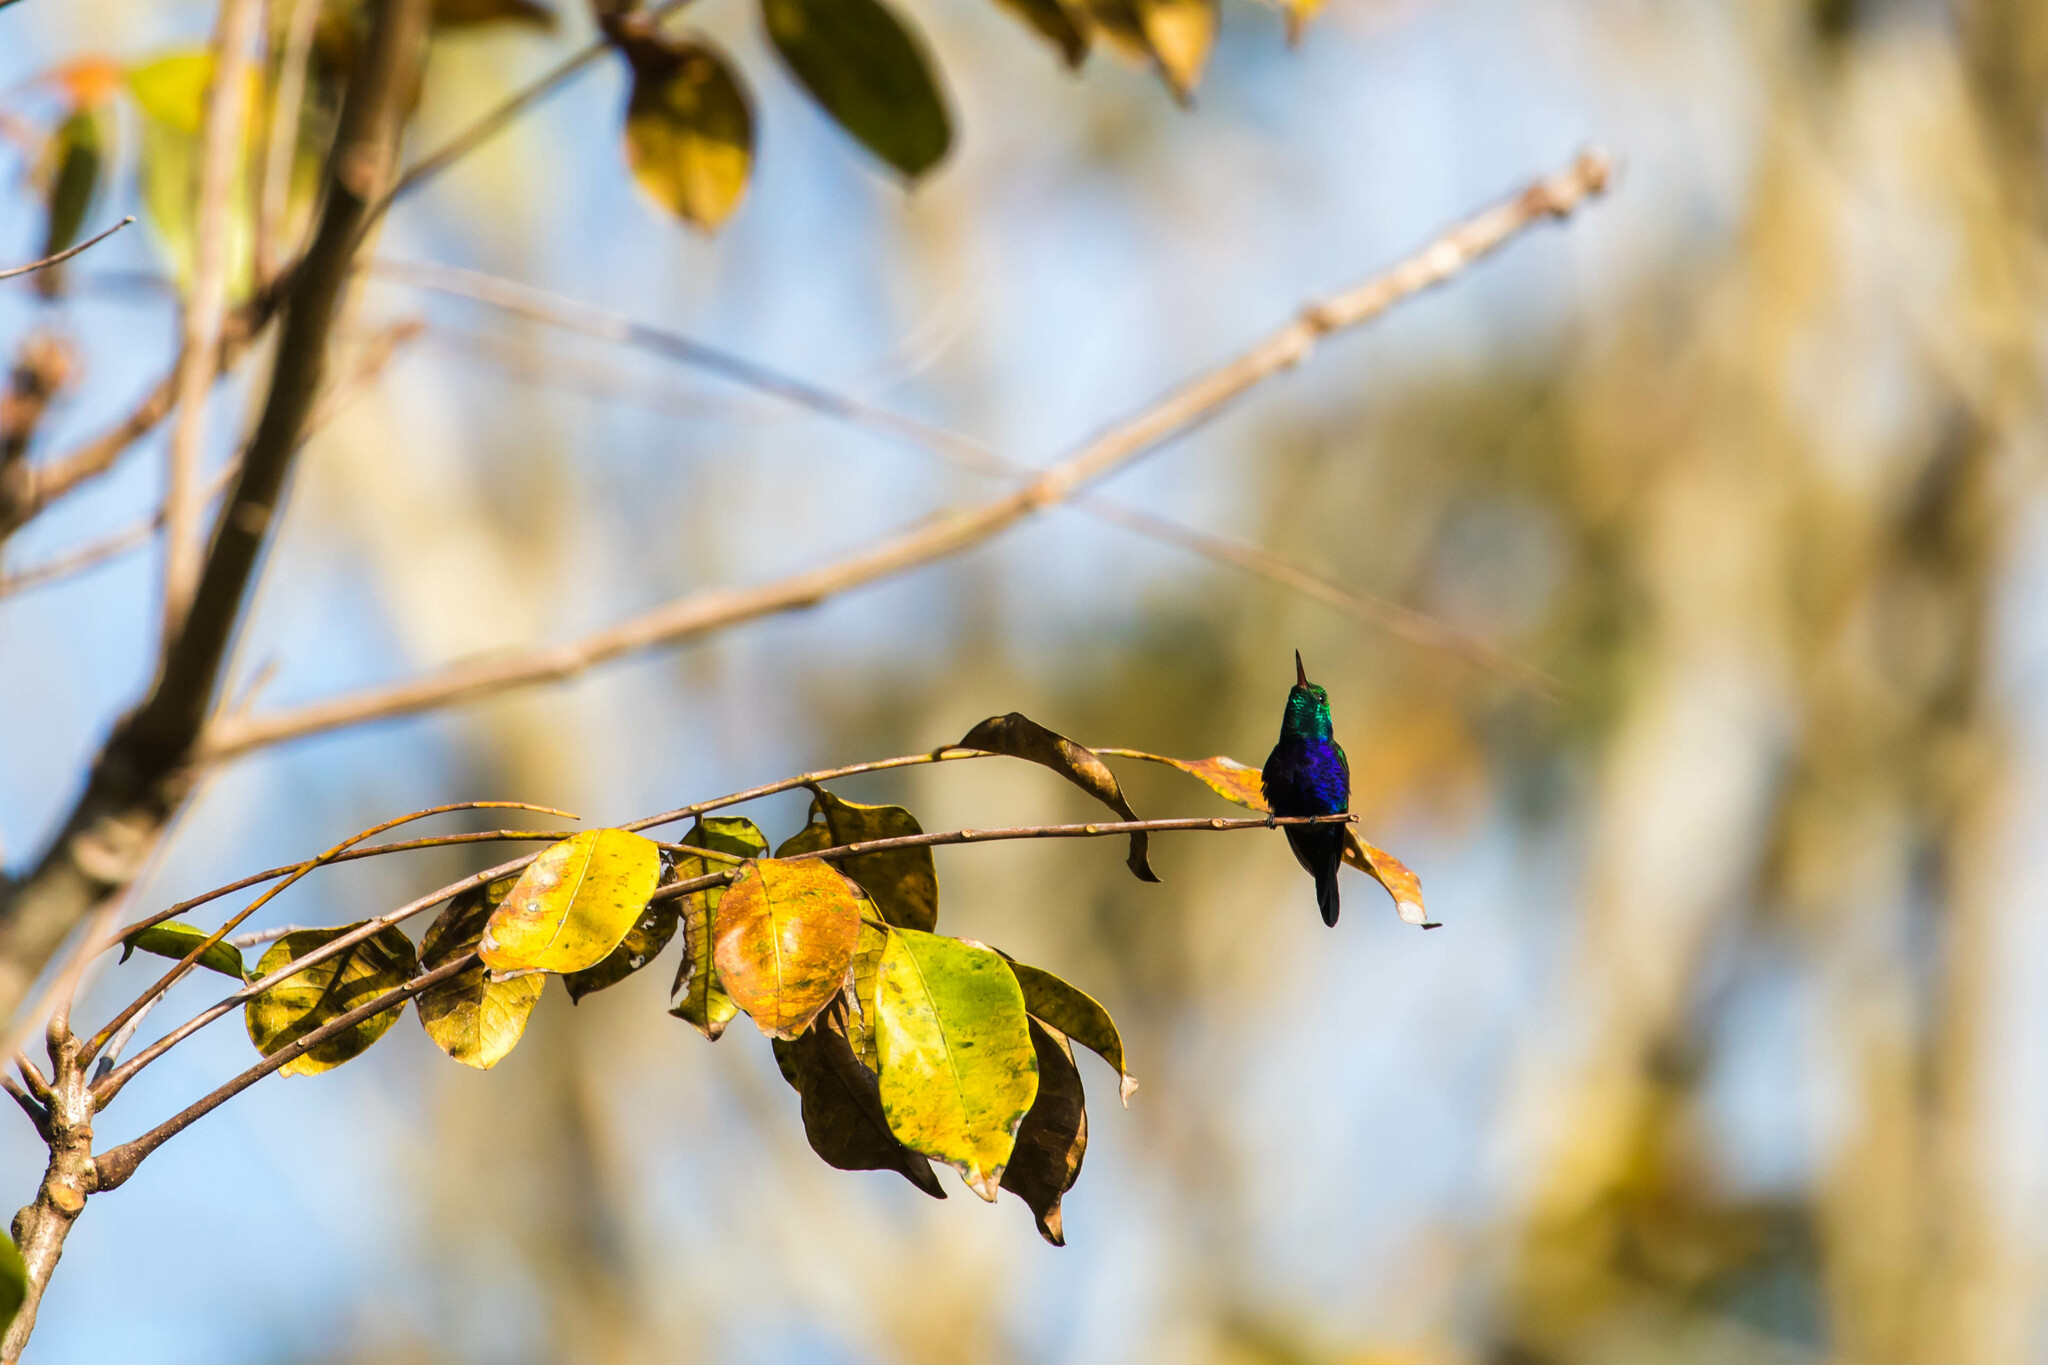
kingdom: Animalia
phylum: Chordata
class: Aves
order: Apodiformes
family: Trochilidae
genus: Chlorestes
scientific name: Chlorestes julie
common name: Violet-bellied hummingbird
